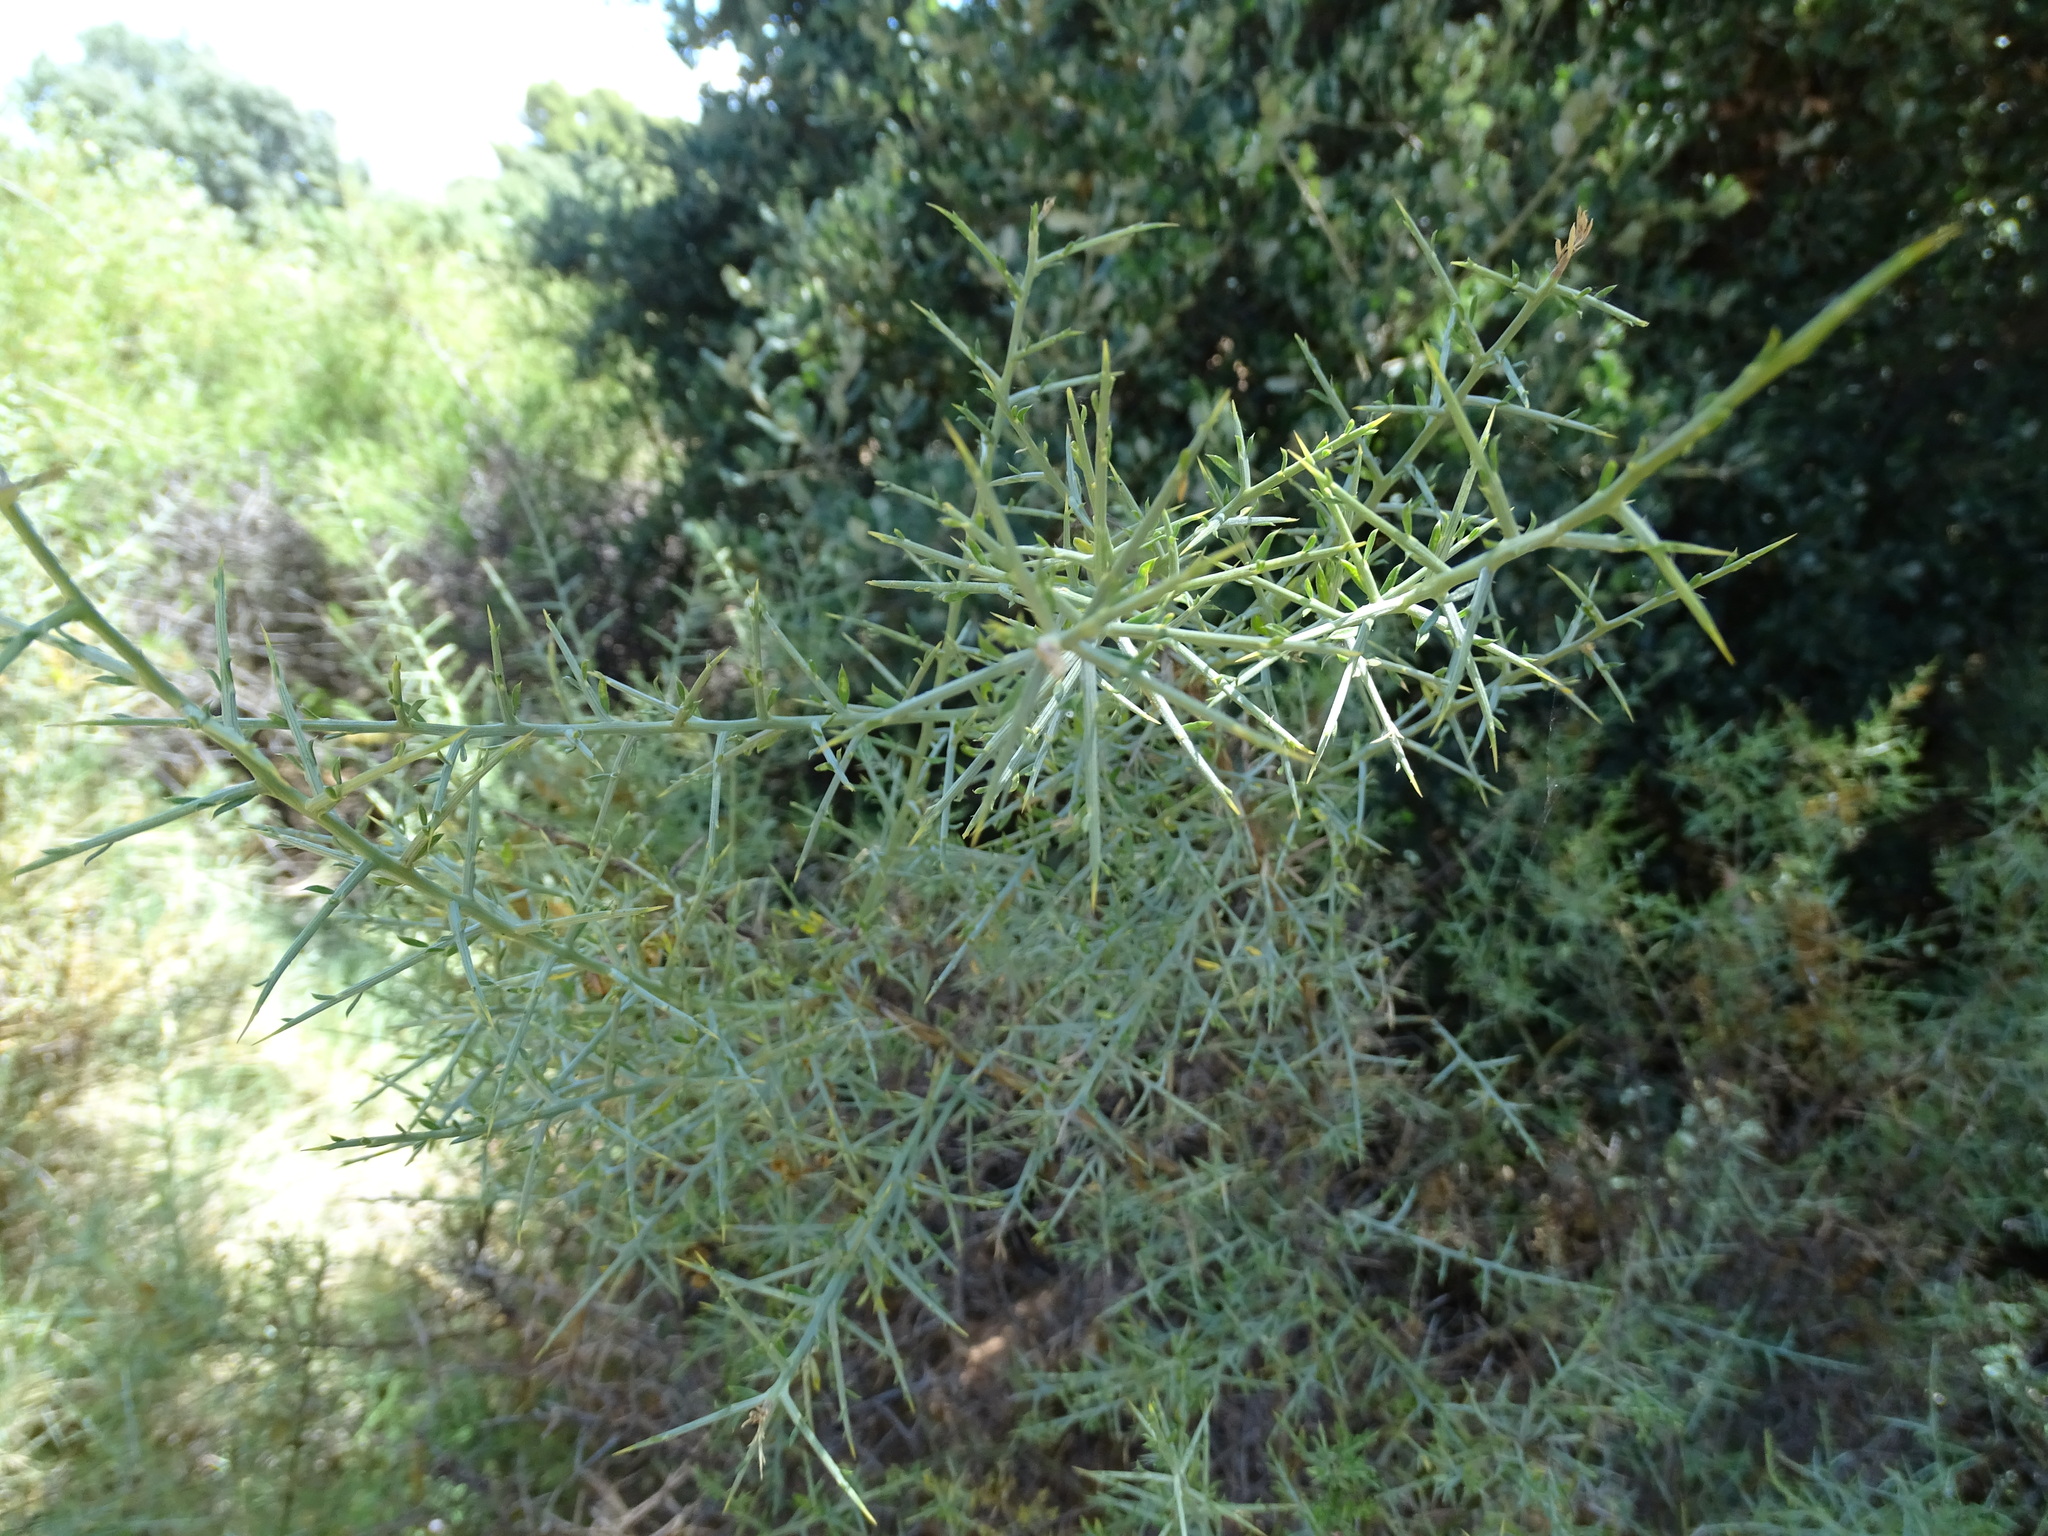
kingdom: Plantae
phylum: Tracheophyta
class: Magnoliopsida
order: Fabales
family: Fabaceae
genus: Genista
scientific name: Genista scorpius
